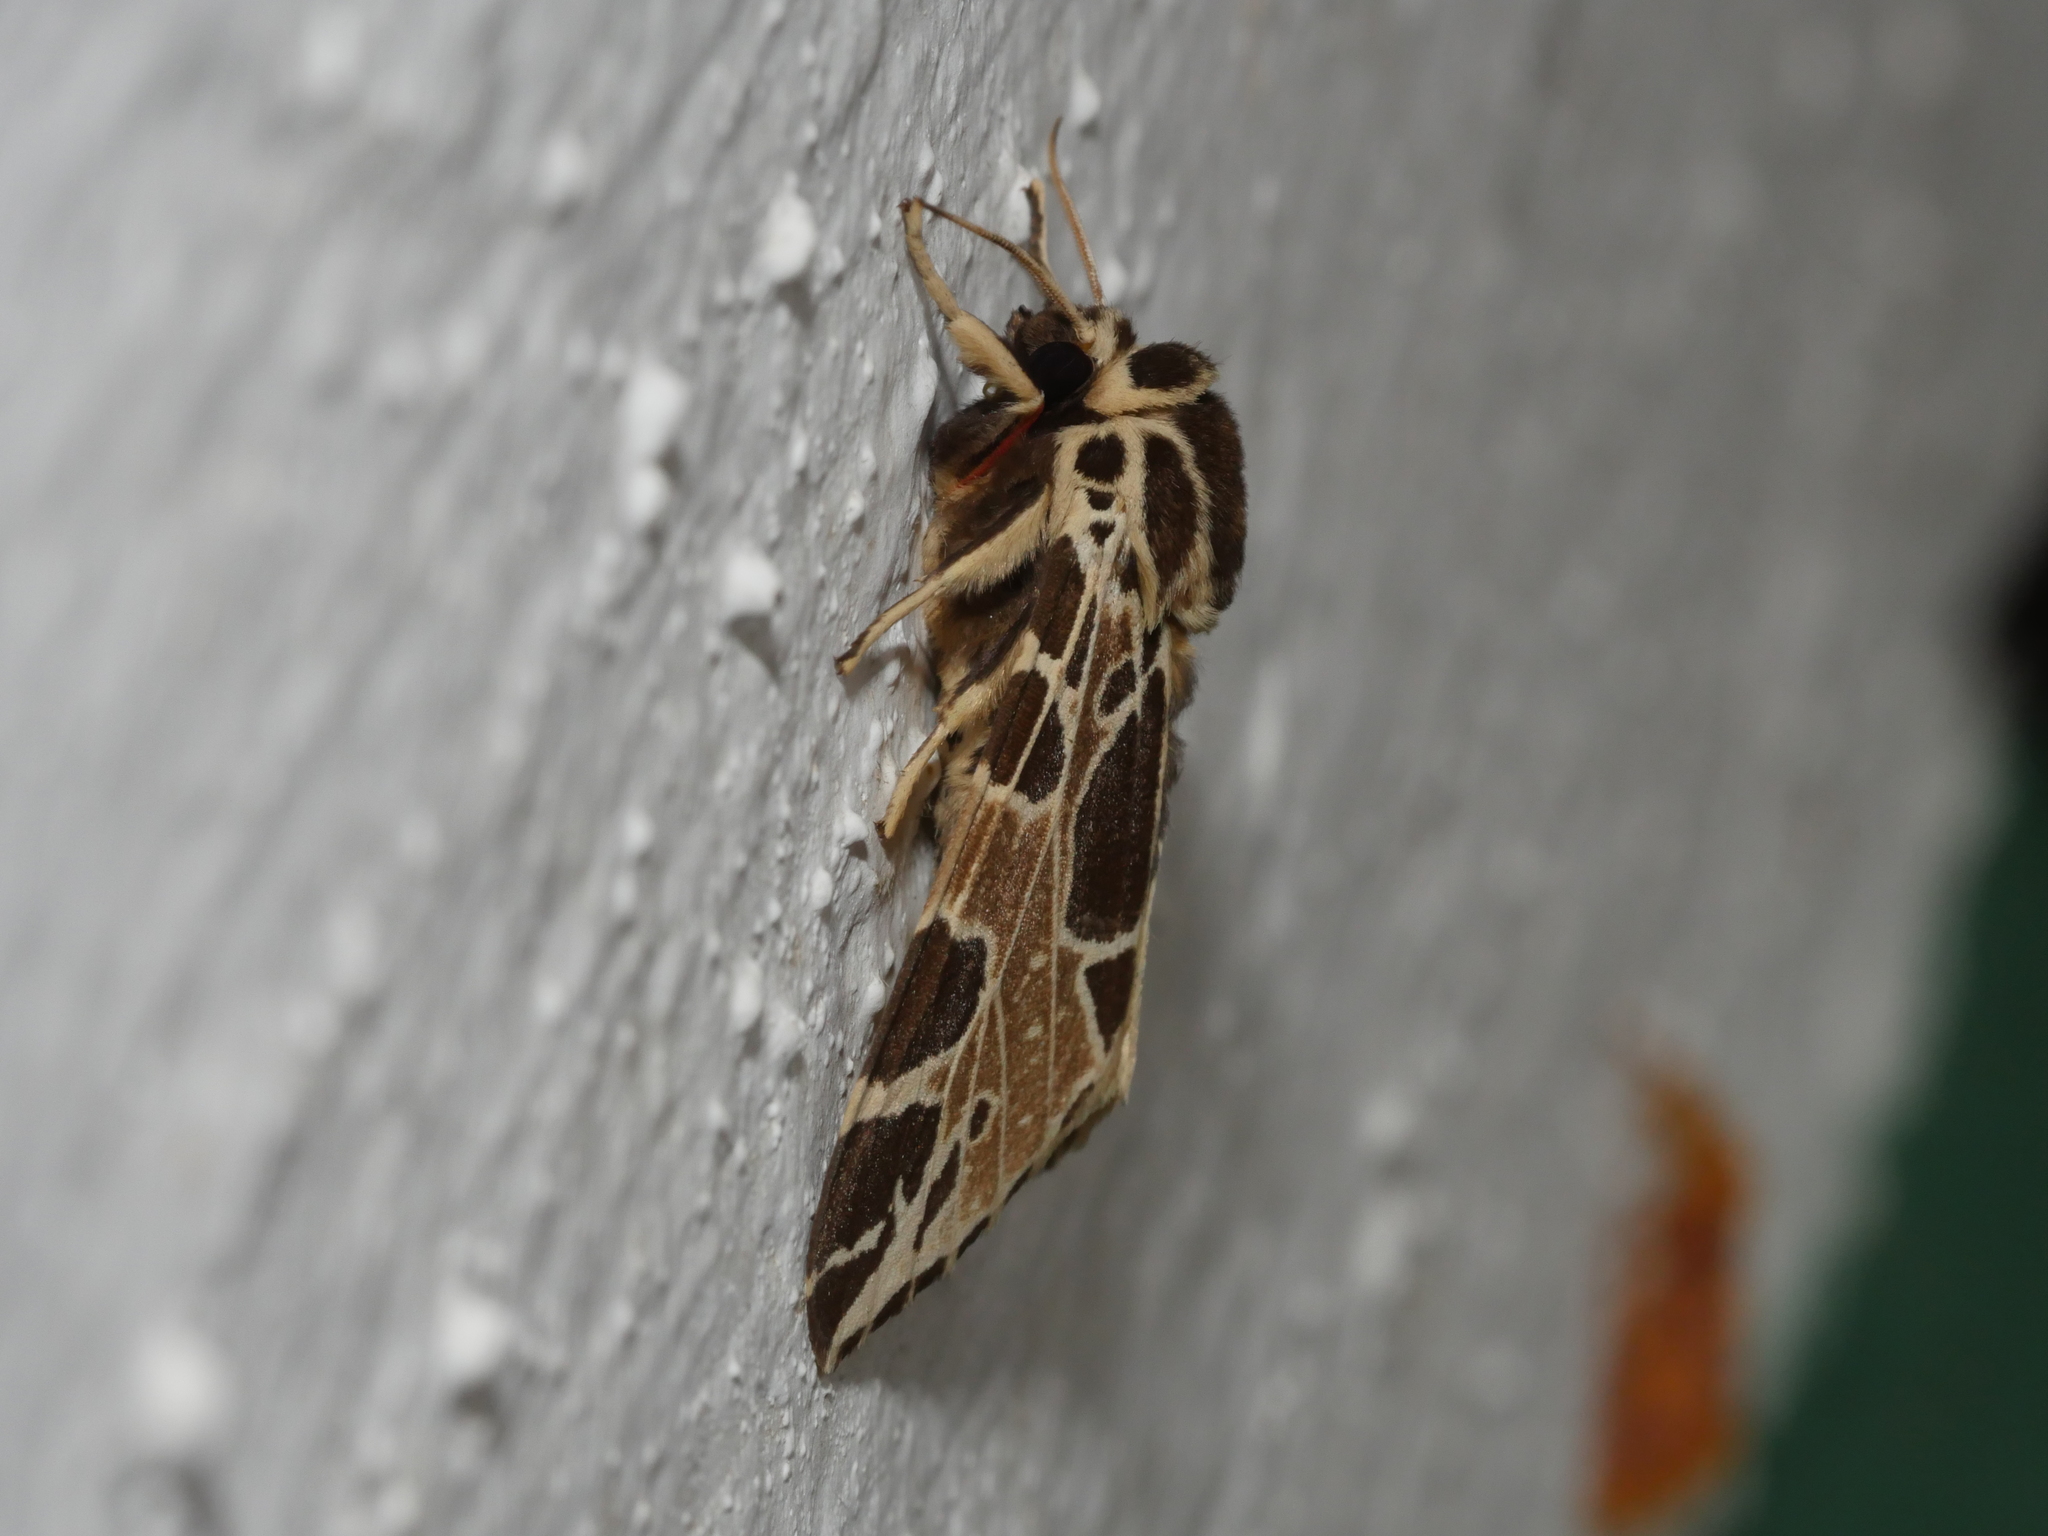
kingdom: Animalia
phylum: Arthropoda
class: Insecta
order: Lepidoptera
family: Erebidae
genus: Kiriakoffalia
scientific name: Kiriakoffalia costimacula
